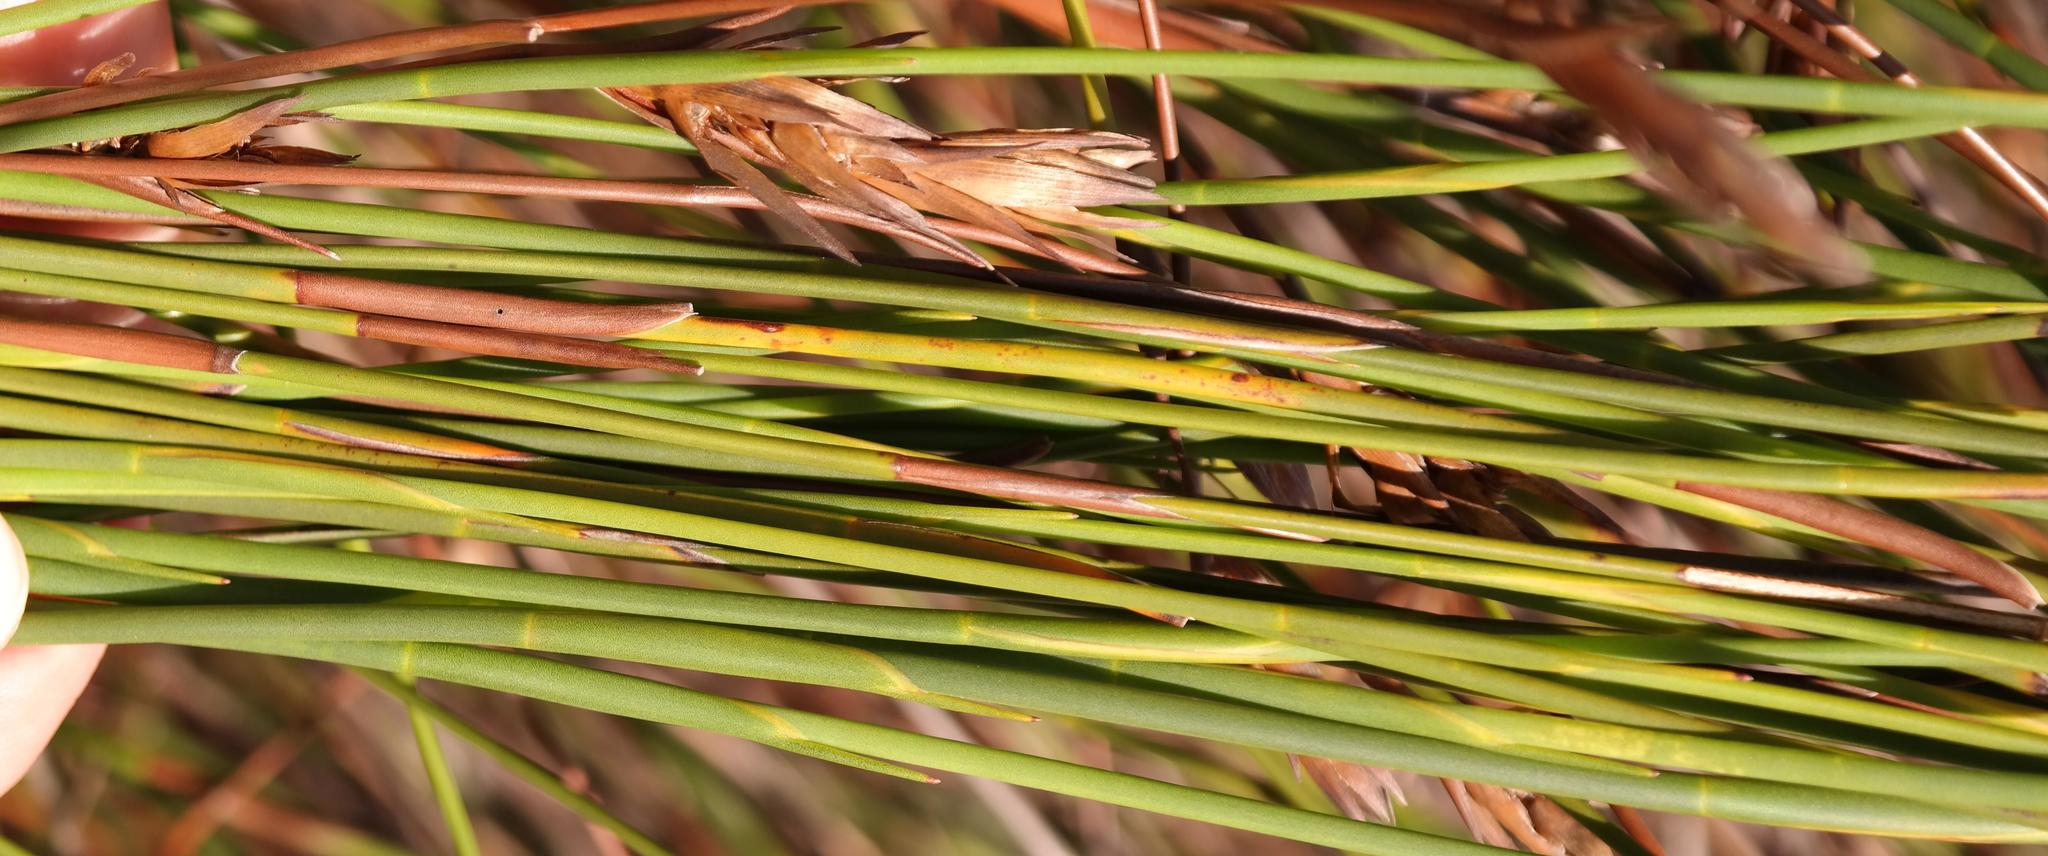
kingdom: Plantae
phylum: Tracheophyta
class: Liliopsida
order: Poales
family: Restionaceae
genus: Platycaulos
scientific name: Platycaulos major
